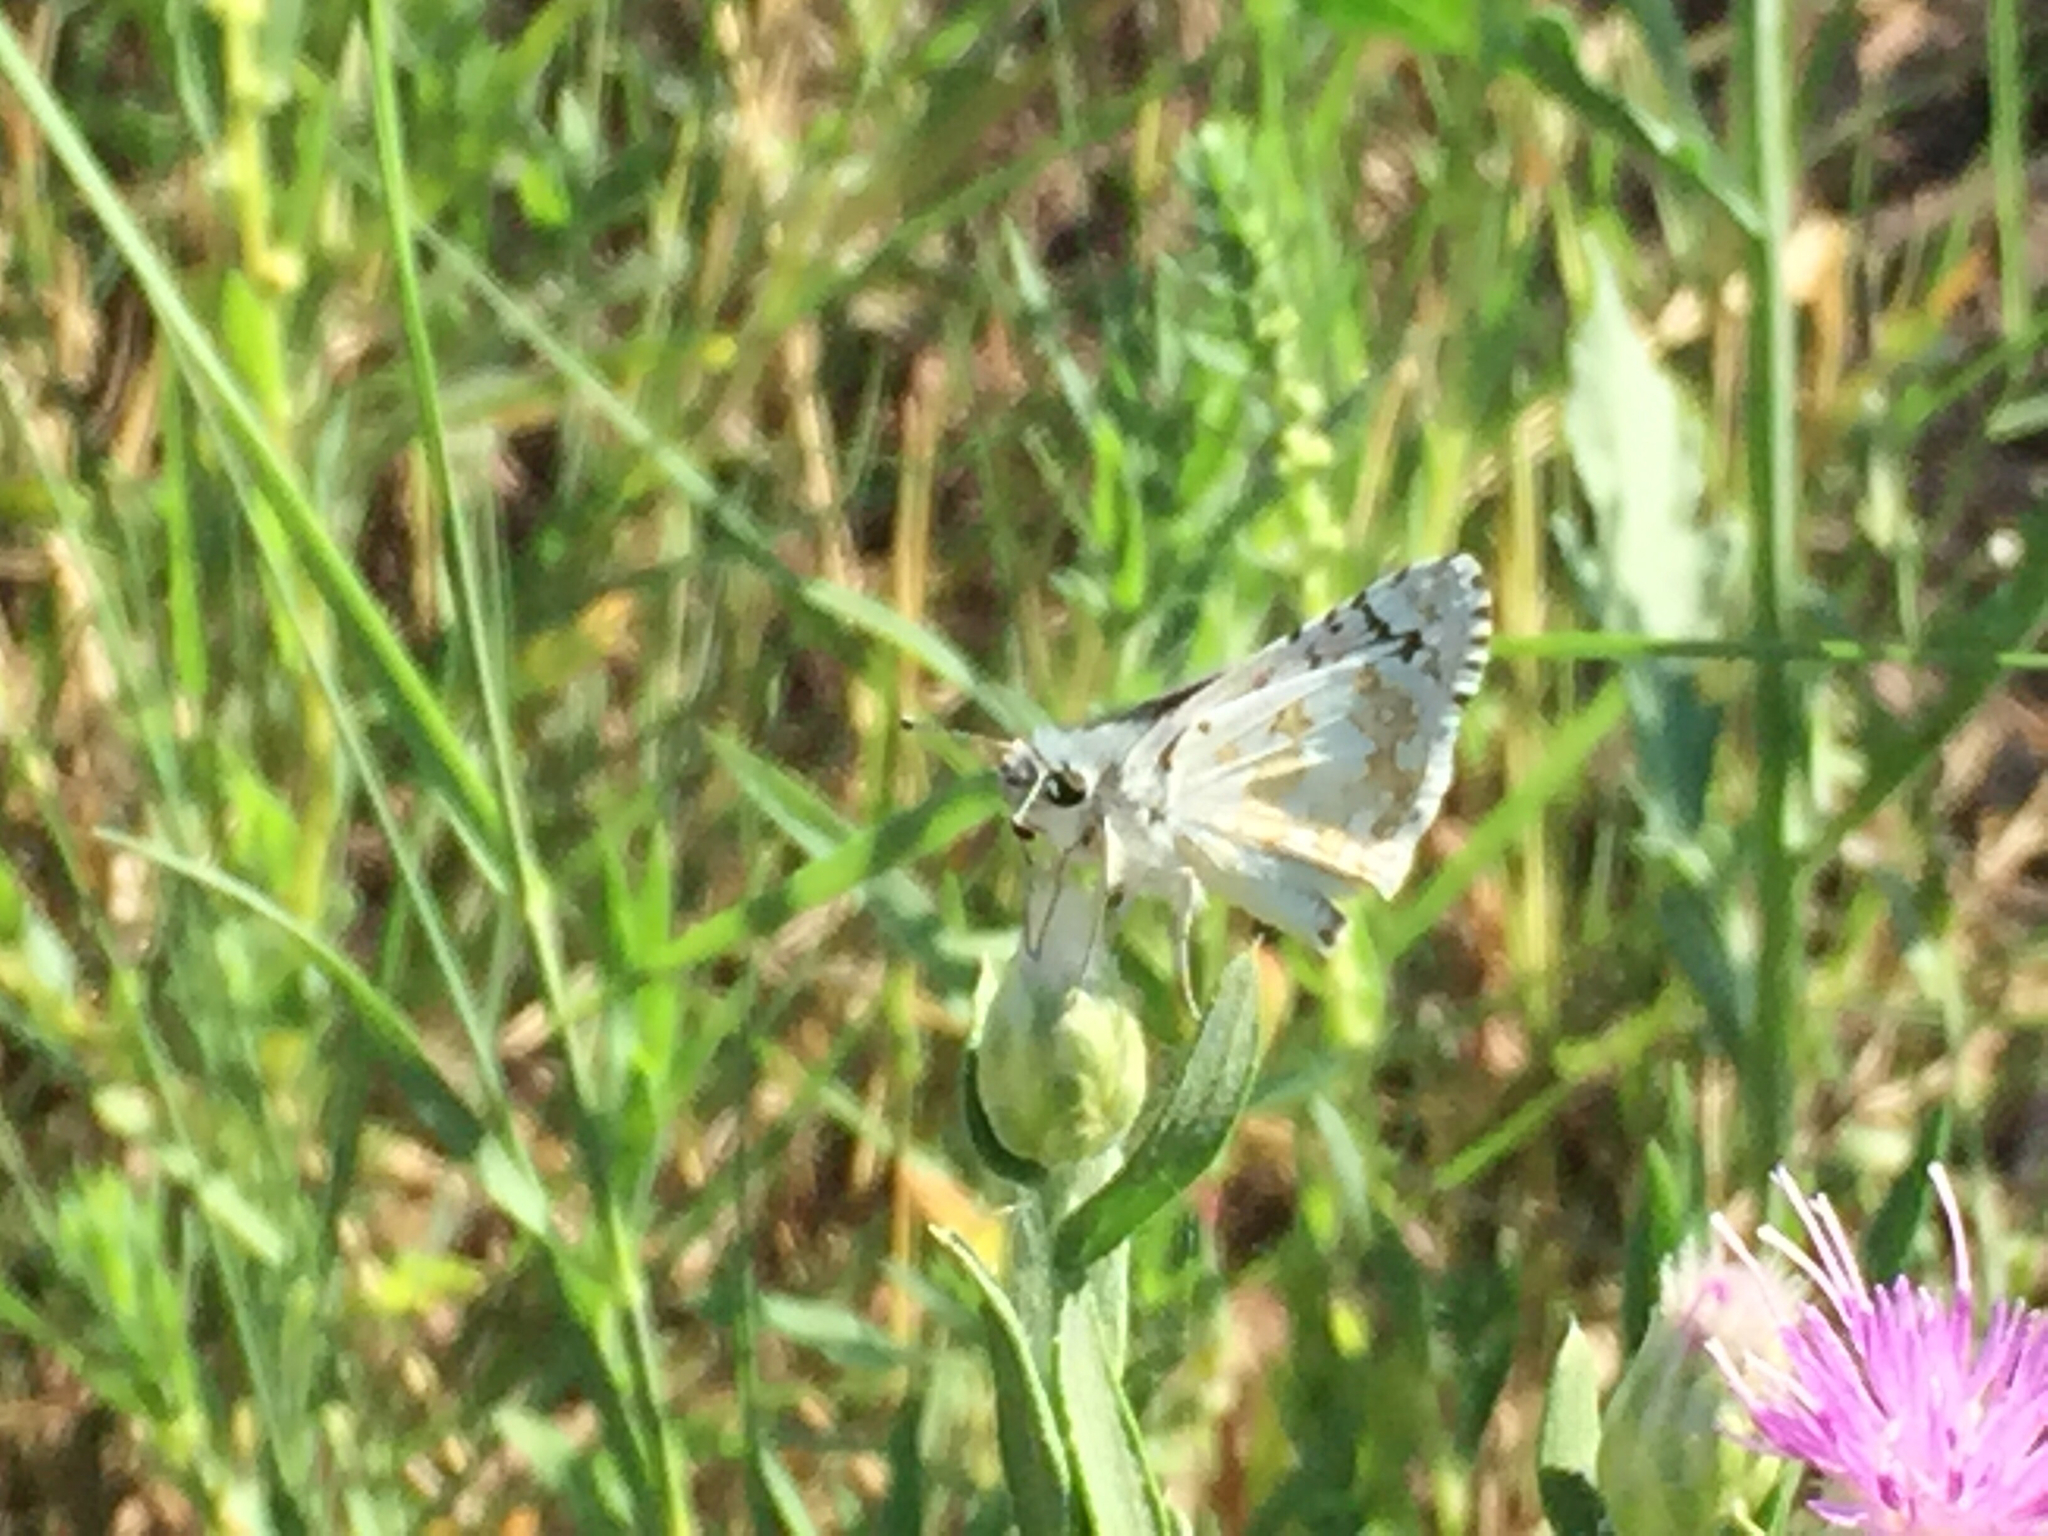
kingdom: Animalia
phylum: Arthropoda
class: Insecta
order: Lepidoptera
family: Hesperiidae
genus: Burnsius
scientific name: Burnsius communis
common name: Common checkered-skipper
